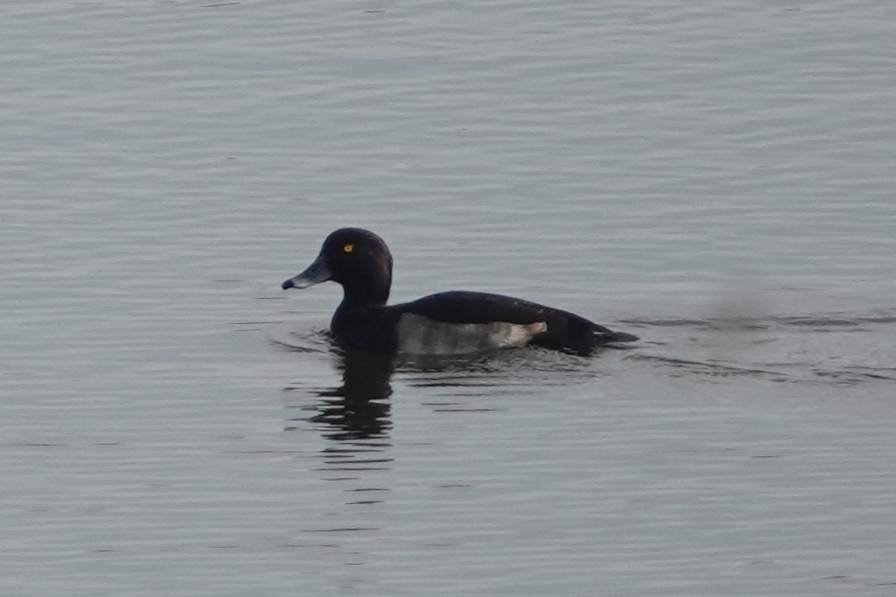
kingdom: Animalia
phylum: Chordata
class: Aves
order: Anseriformes
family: Anatidae
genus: Aythya
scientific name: Aythya fuligula
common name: Tufted duck
